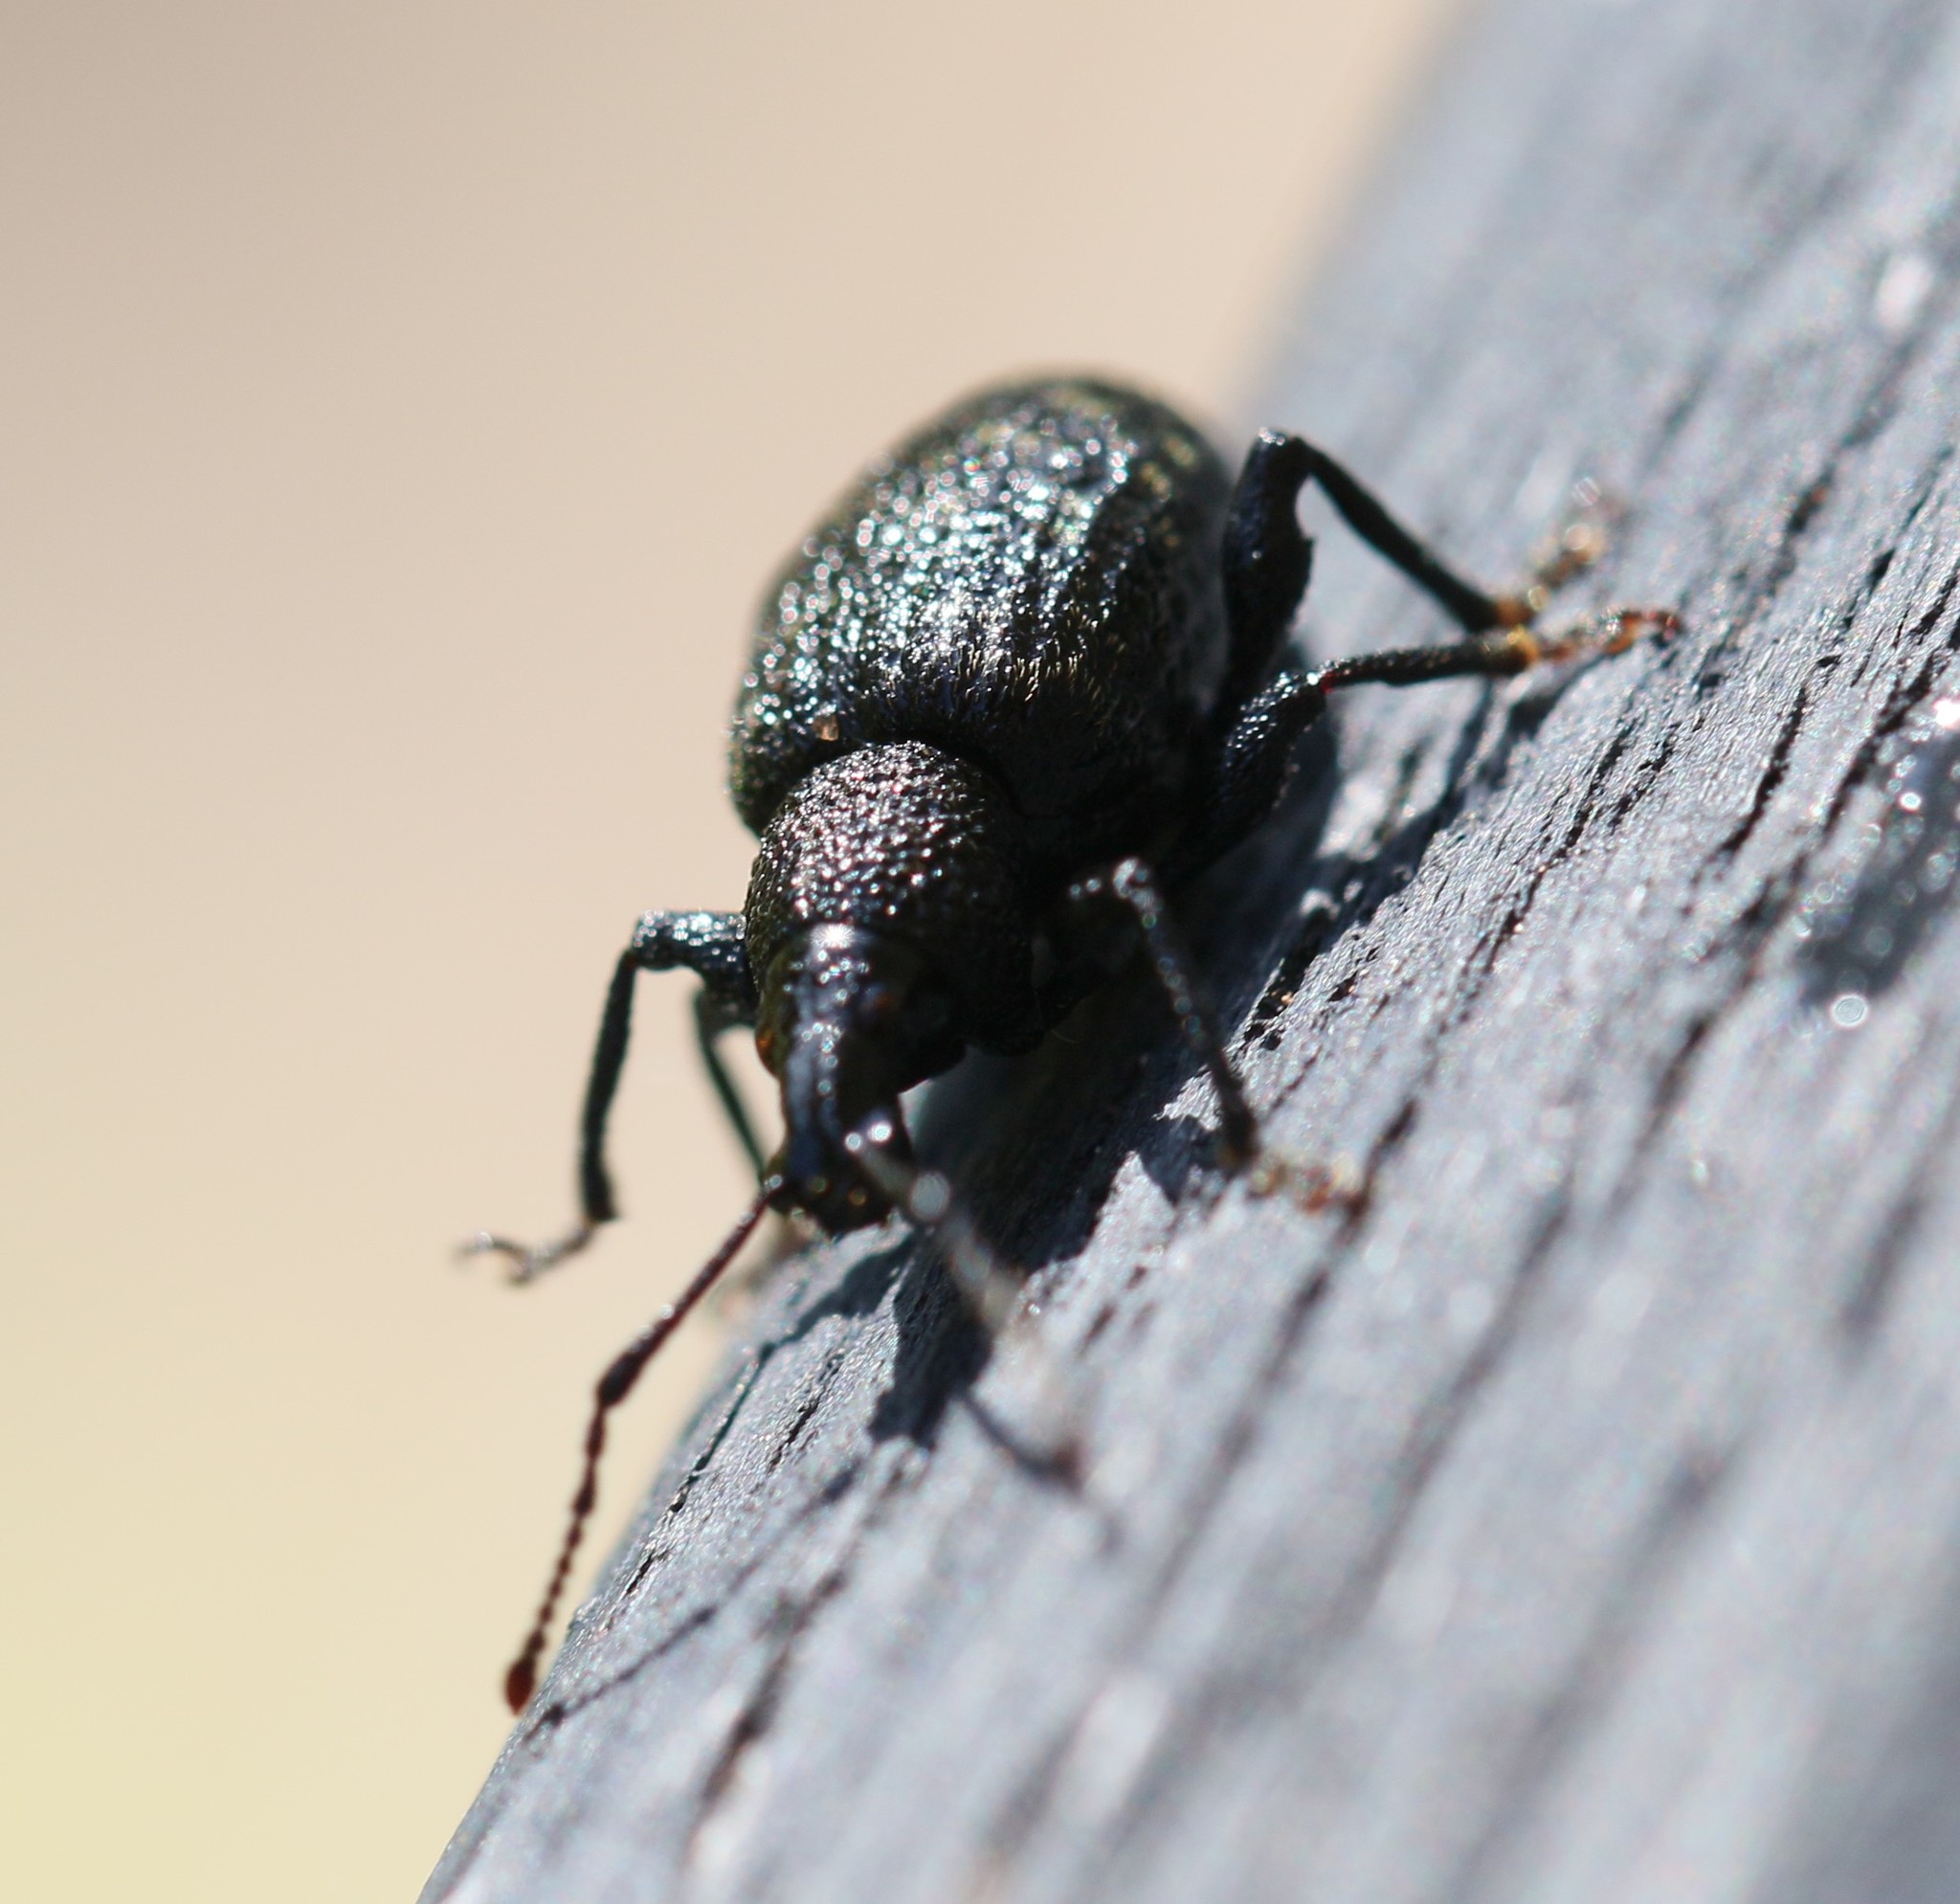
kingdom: Animalia
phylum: Arthropoda
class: Insecta
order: Coleoptera
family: Curculionidae
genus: Otiorhynchus
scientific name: Otiorhynchus sulcatus
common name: Black vine weevil
